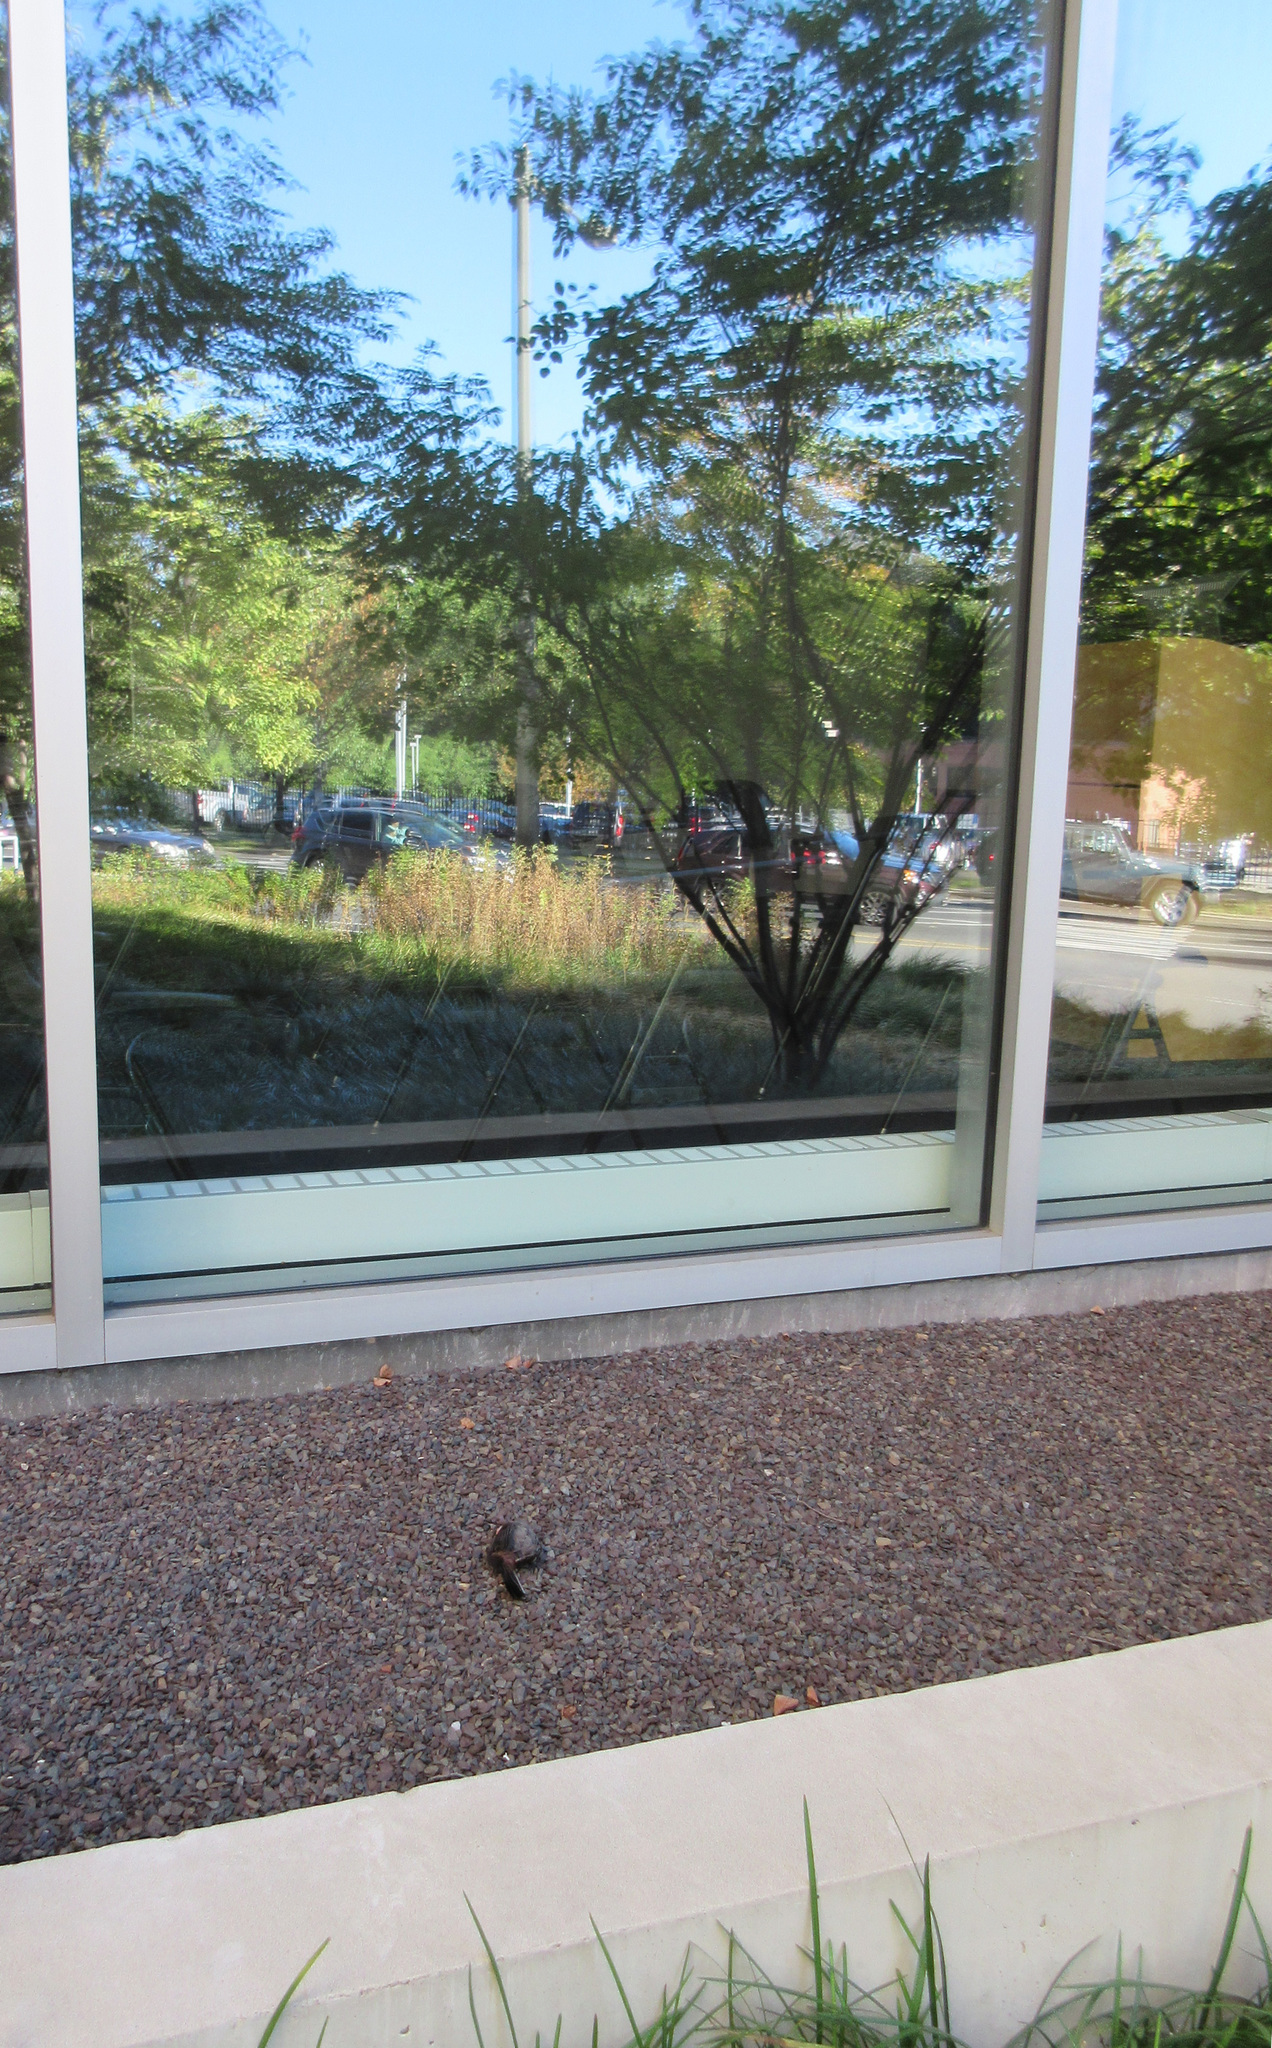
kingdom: Animalia
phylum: Chordata
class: Aves
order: Passeriformes
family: Mimidae
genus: Dumetella
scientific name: Dumetella carolinensis
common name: Gray catbird
